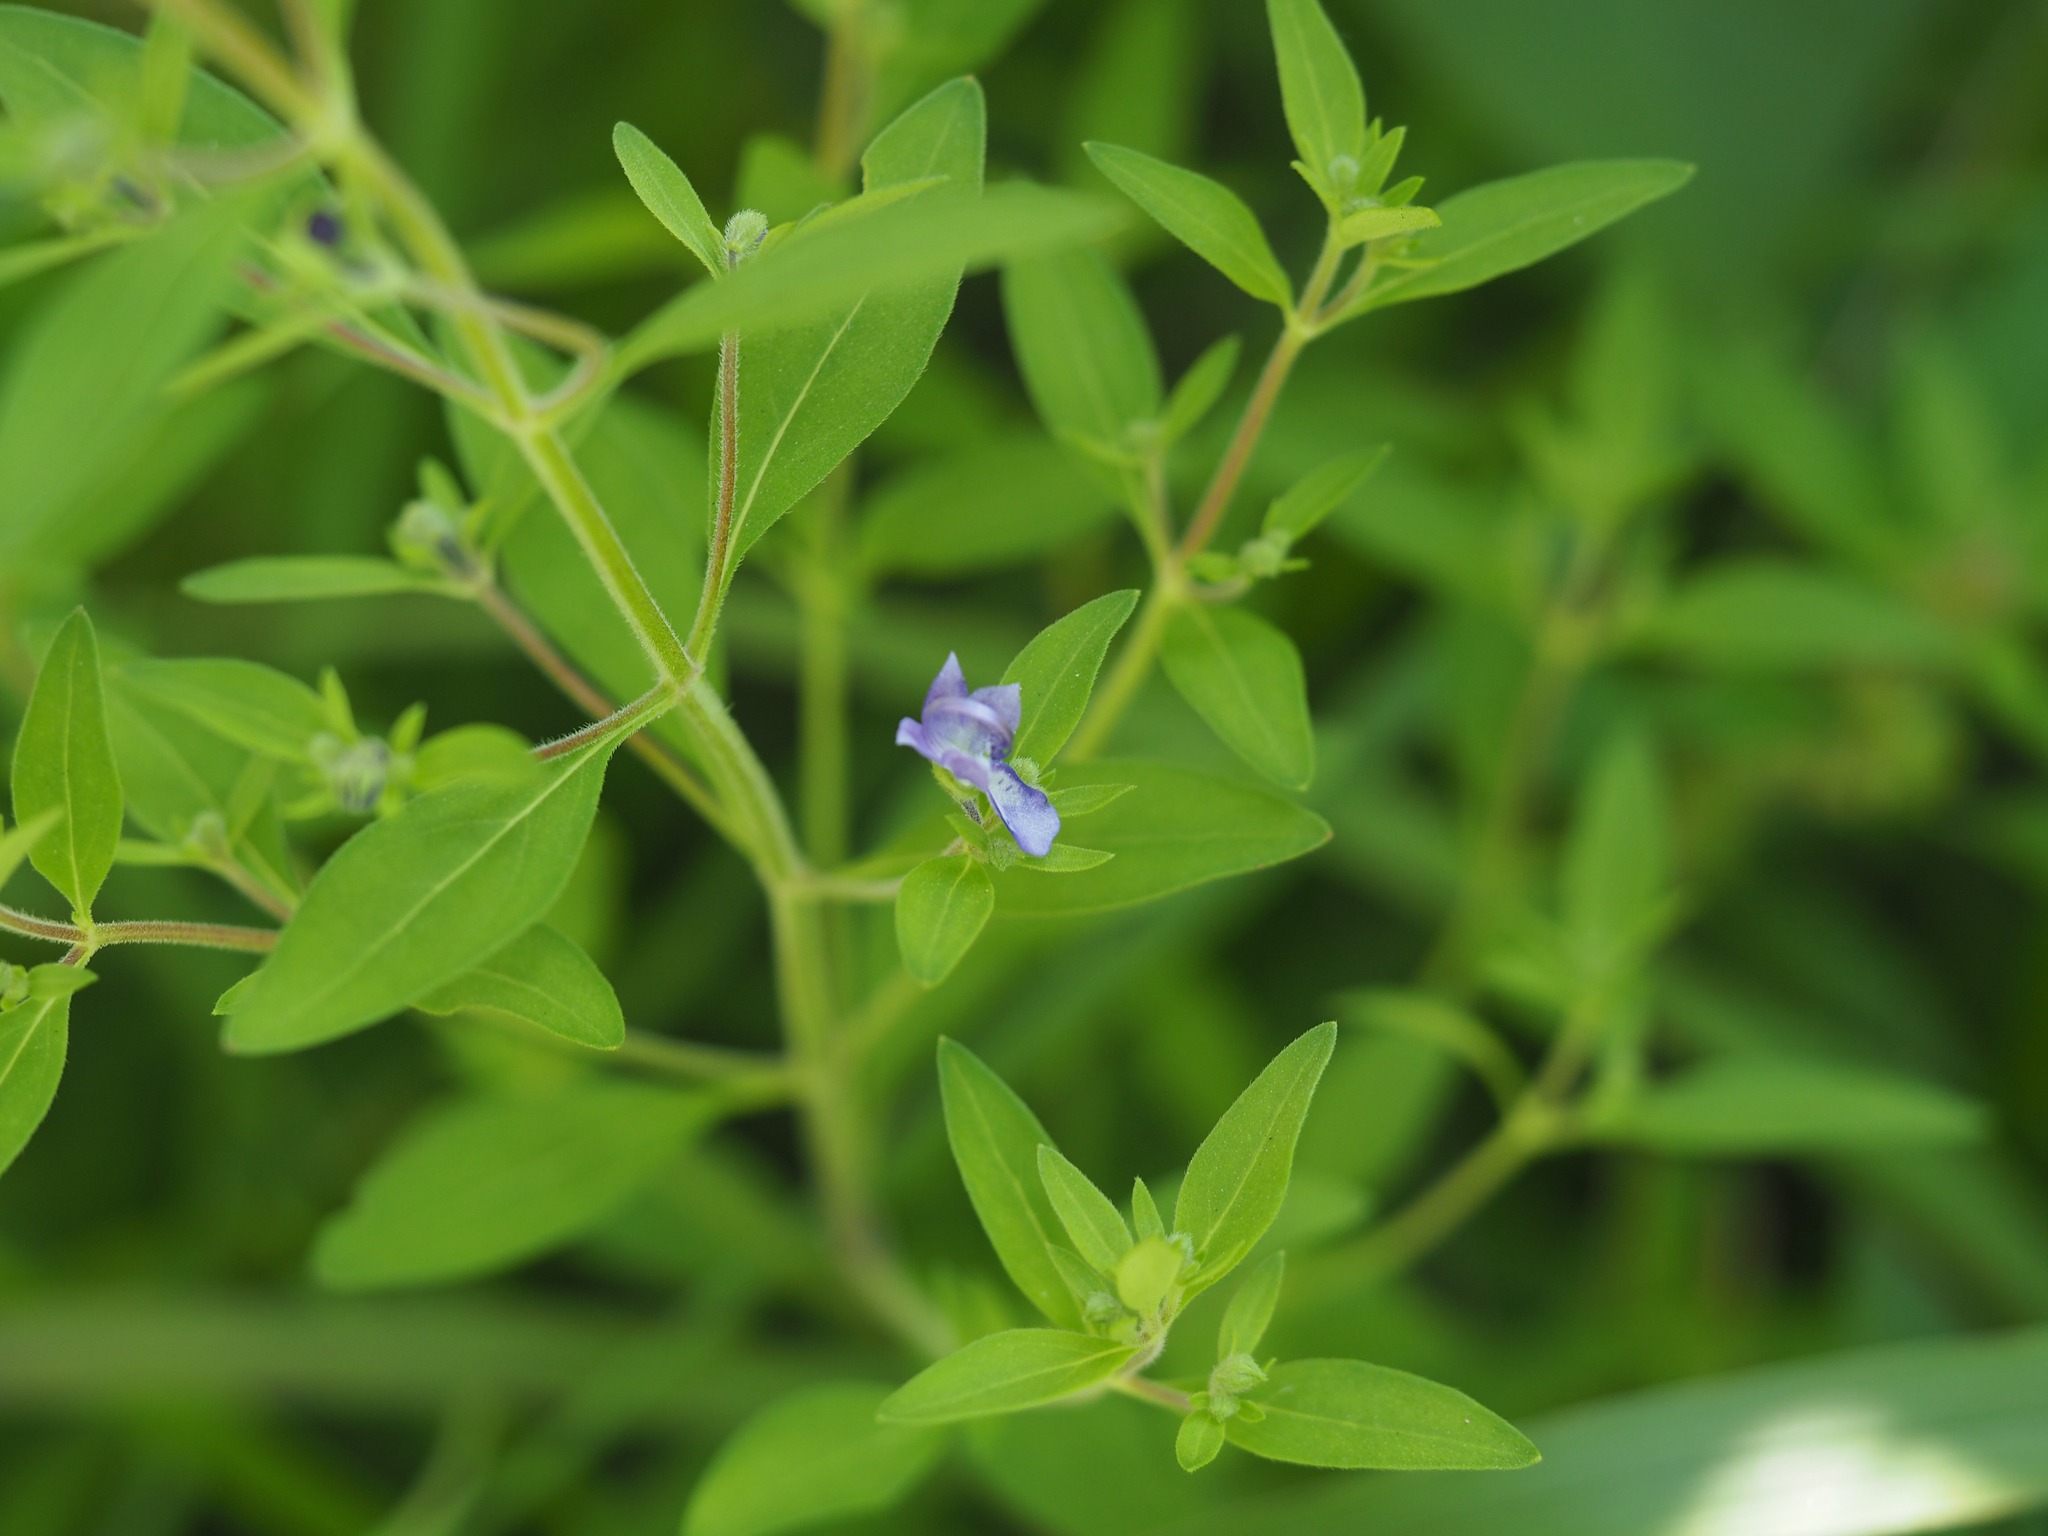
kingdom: Plantae
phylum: Tracheophyta
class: Magnoliopsida
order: Lamiales
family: Lamiaceae
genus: Trichostema
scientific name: Trichostema dichotomum
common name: Bastard pennyroyal
